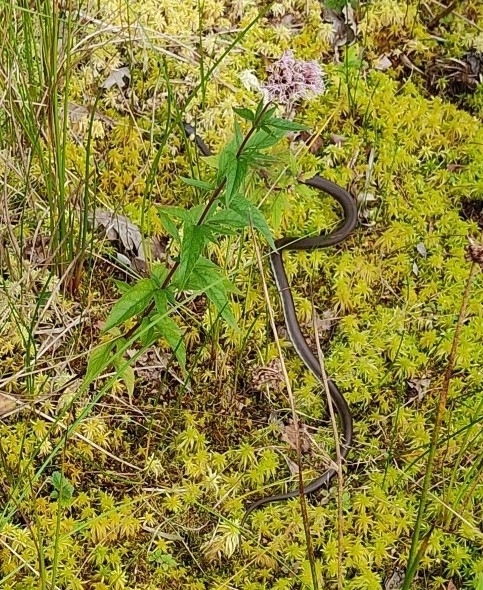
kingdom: Animalia
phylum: Chordata
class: Squamata
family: Colubridae
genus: Natrix
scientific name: Natrix natrix
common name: Grass snake
